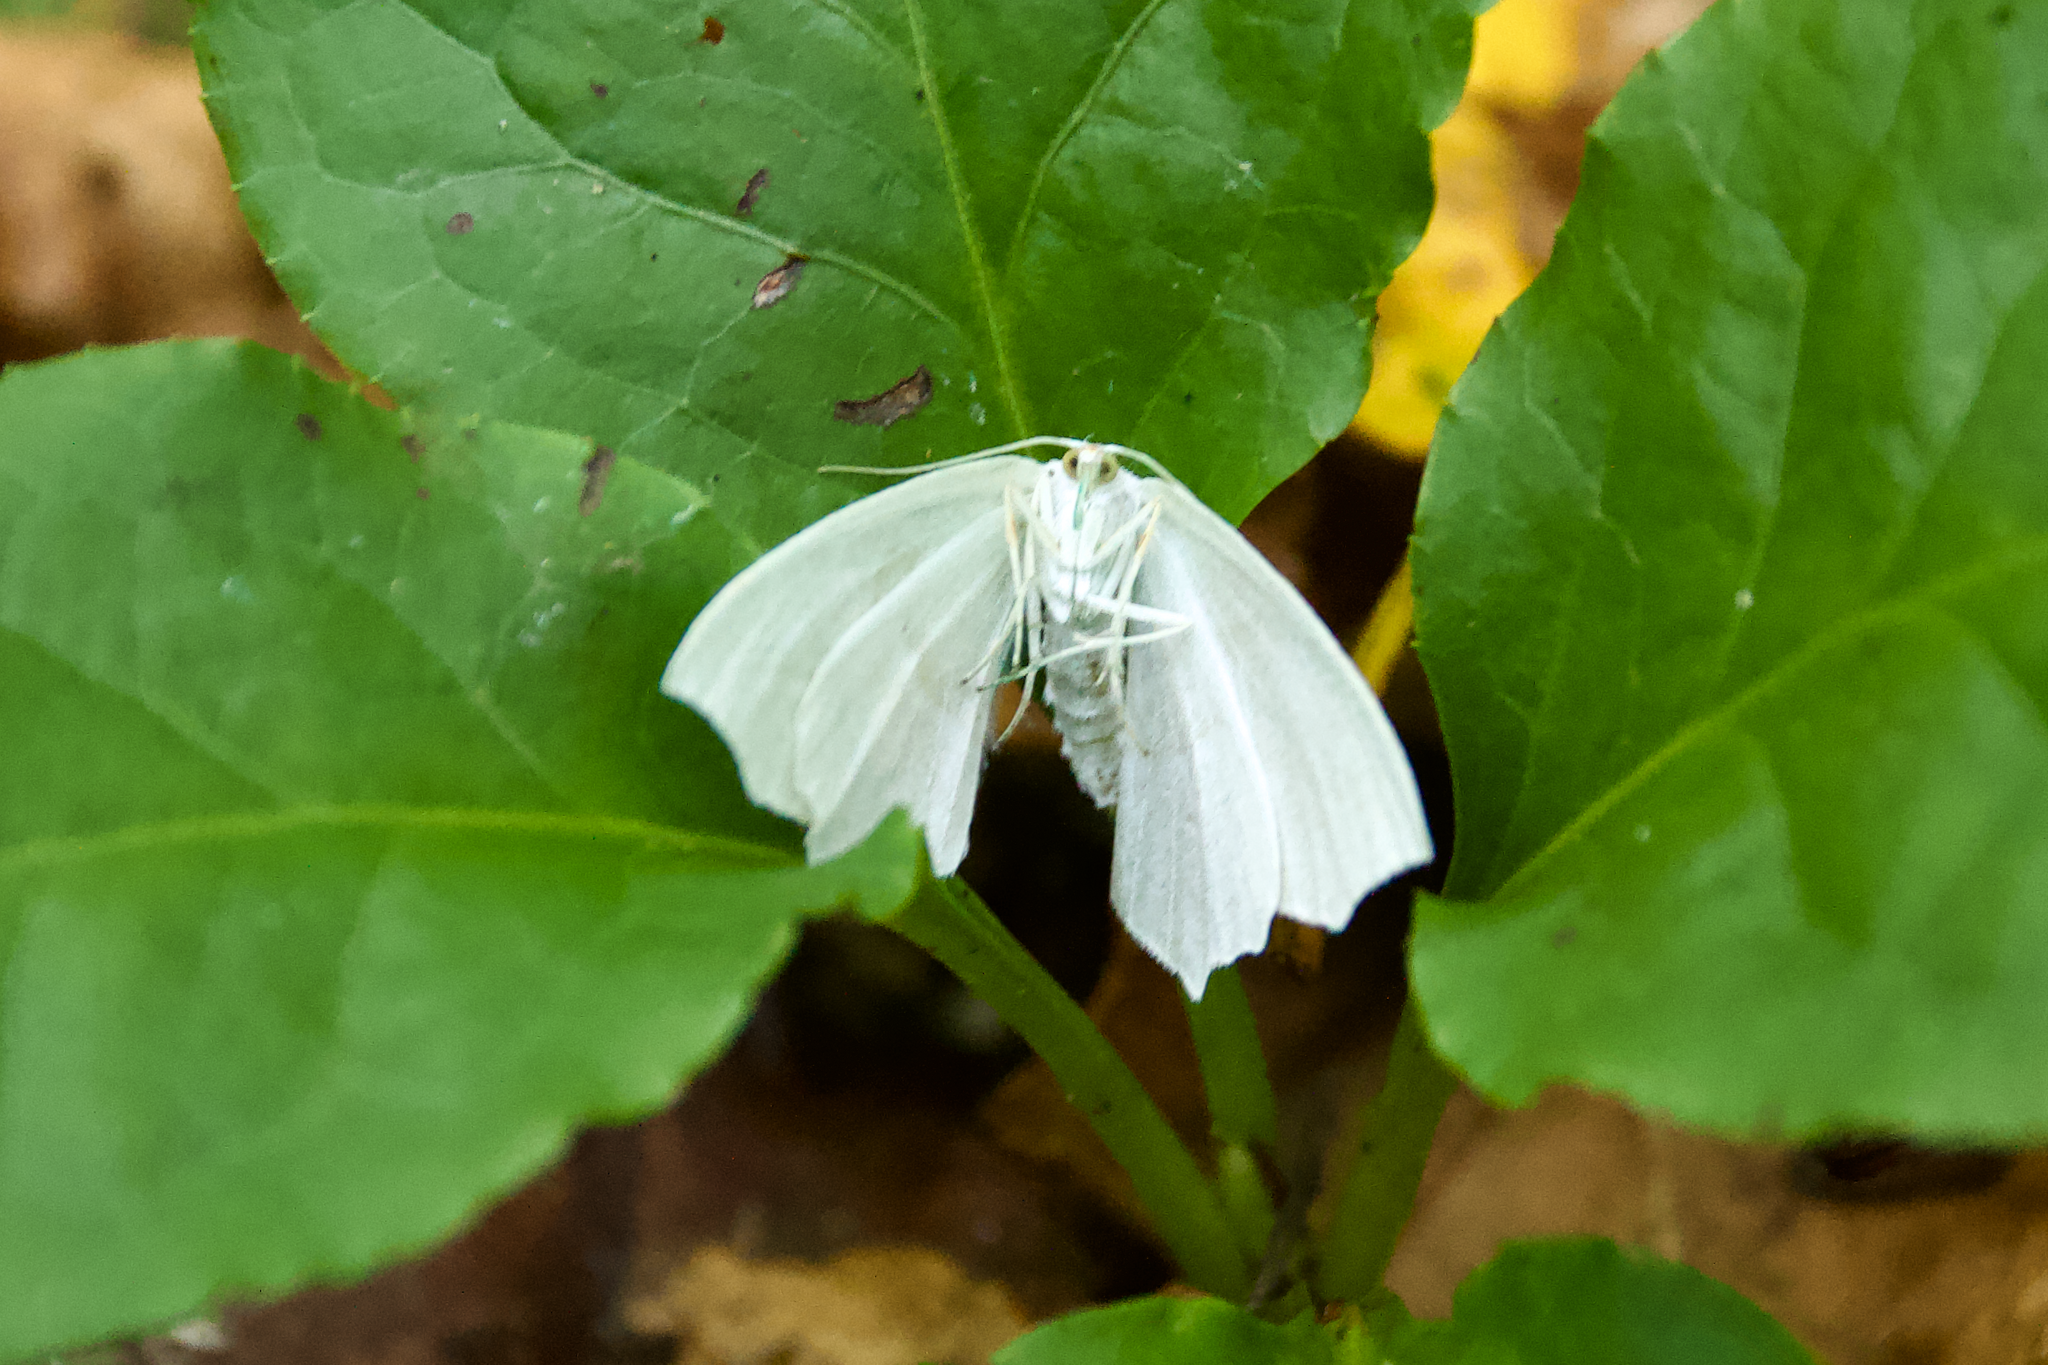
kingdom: Animalia
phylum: Arthropoda
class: Insecta
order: Lepidoptera
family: Geometridae
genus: Campaea
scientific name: Campaea perlata
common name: Fringed looper
